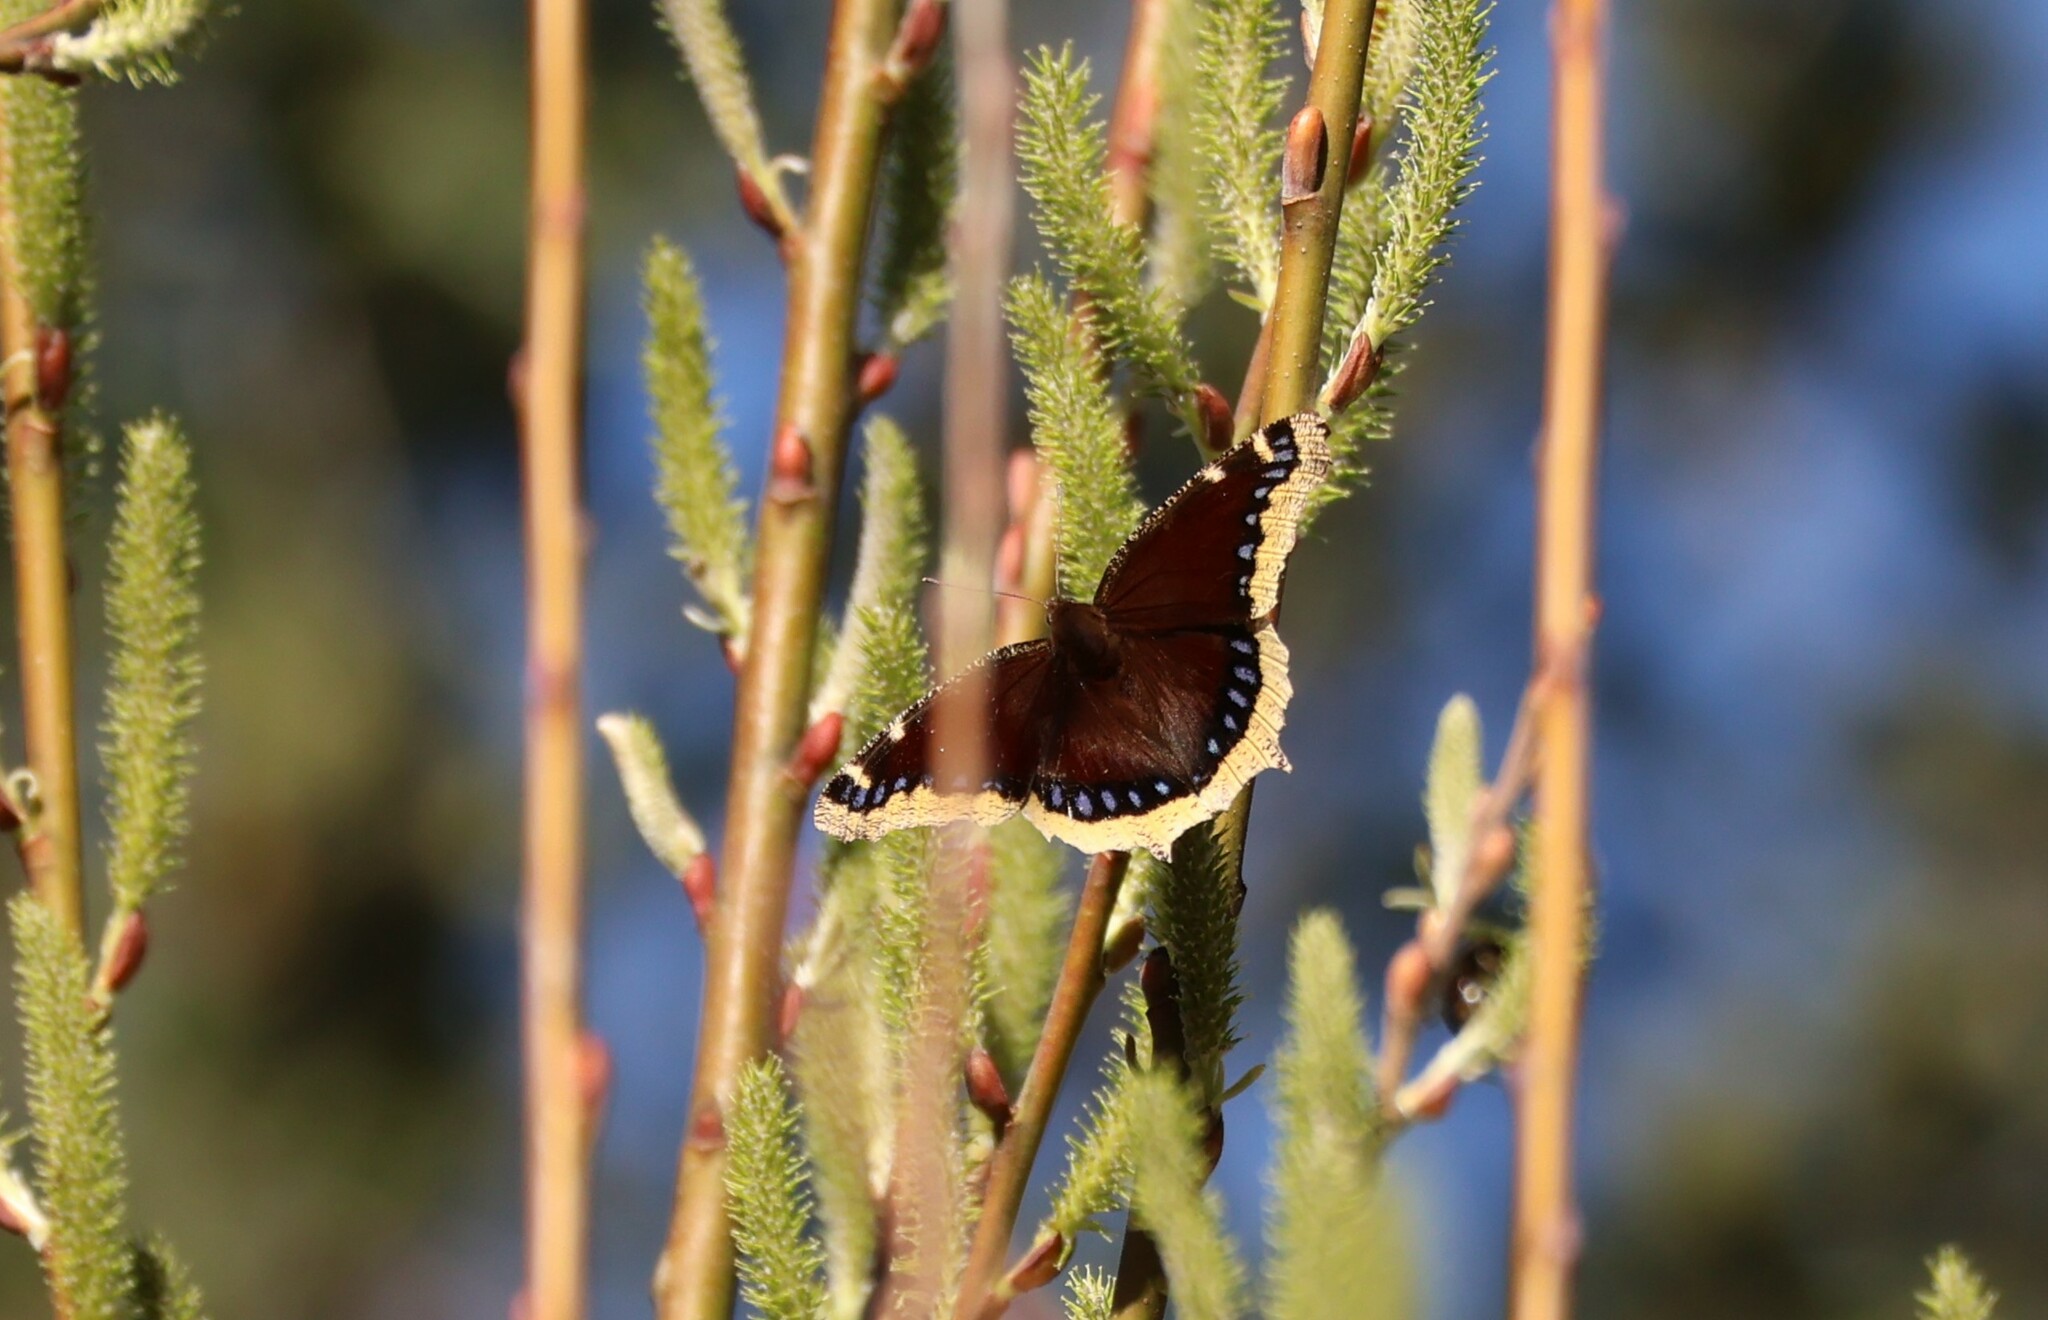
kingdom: Animalia
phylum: Arthropoda
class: Insecta
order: Lepidoptera
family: Nymphalidae
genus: Nymphalis
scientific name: Nymphalis antiopa
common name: Camberwell beauty
